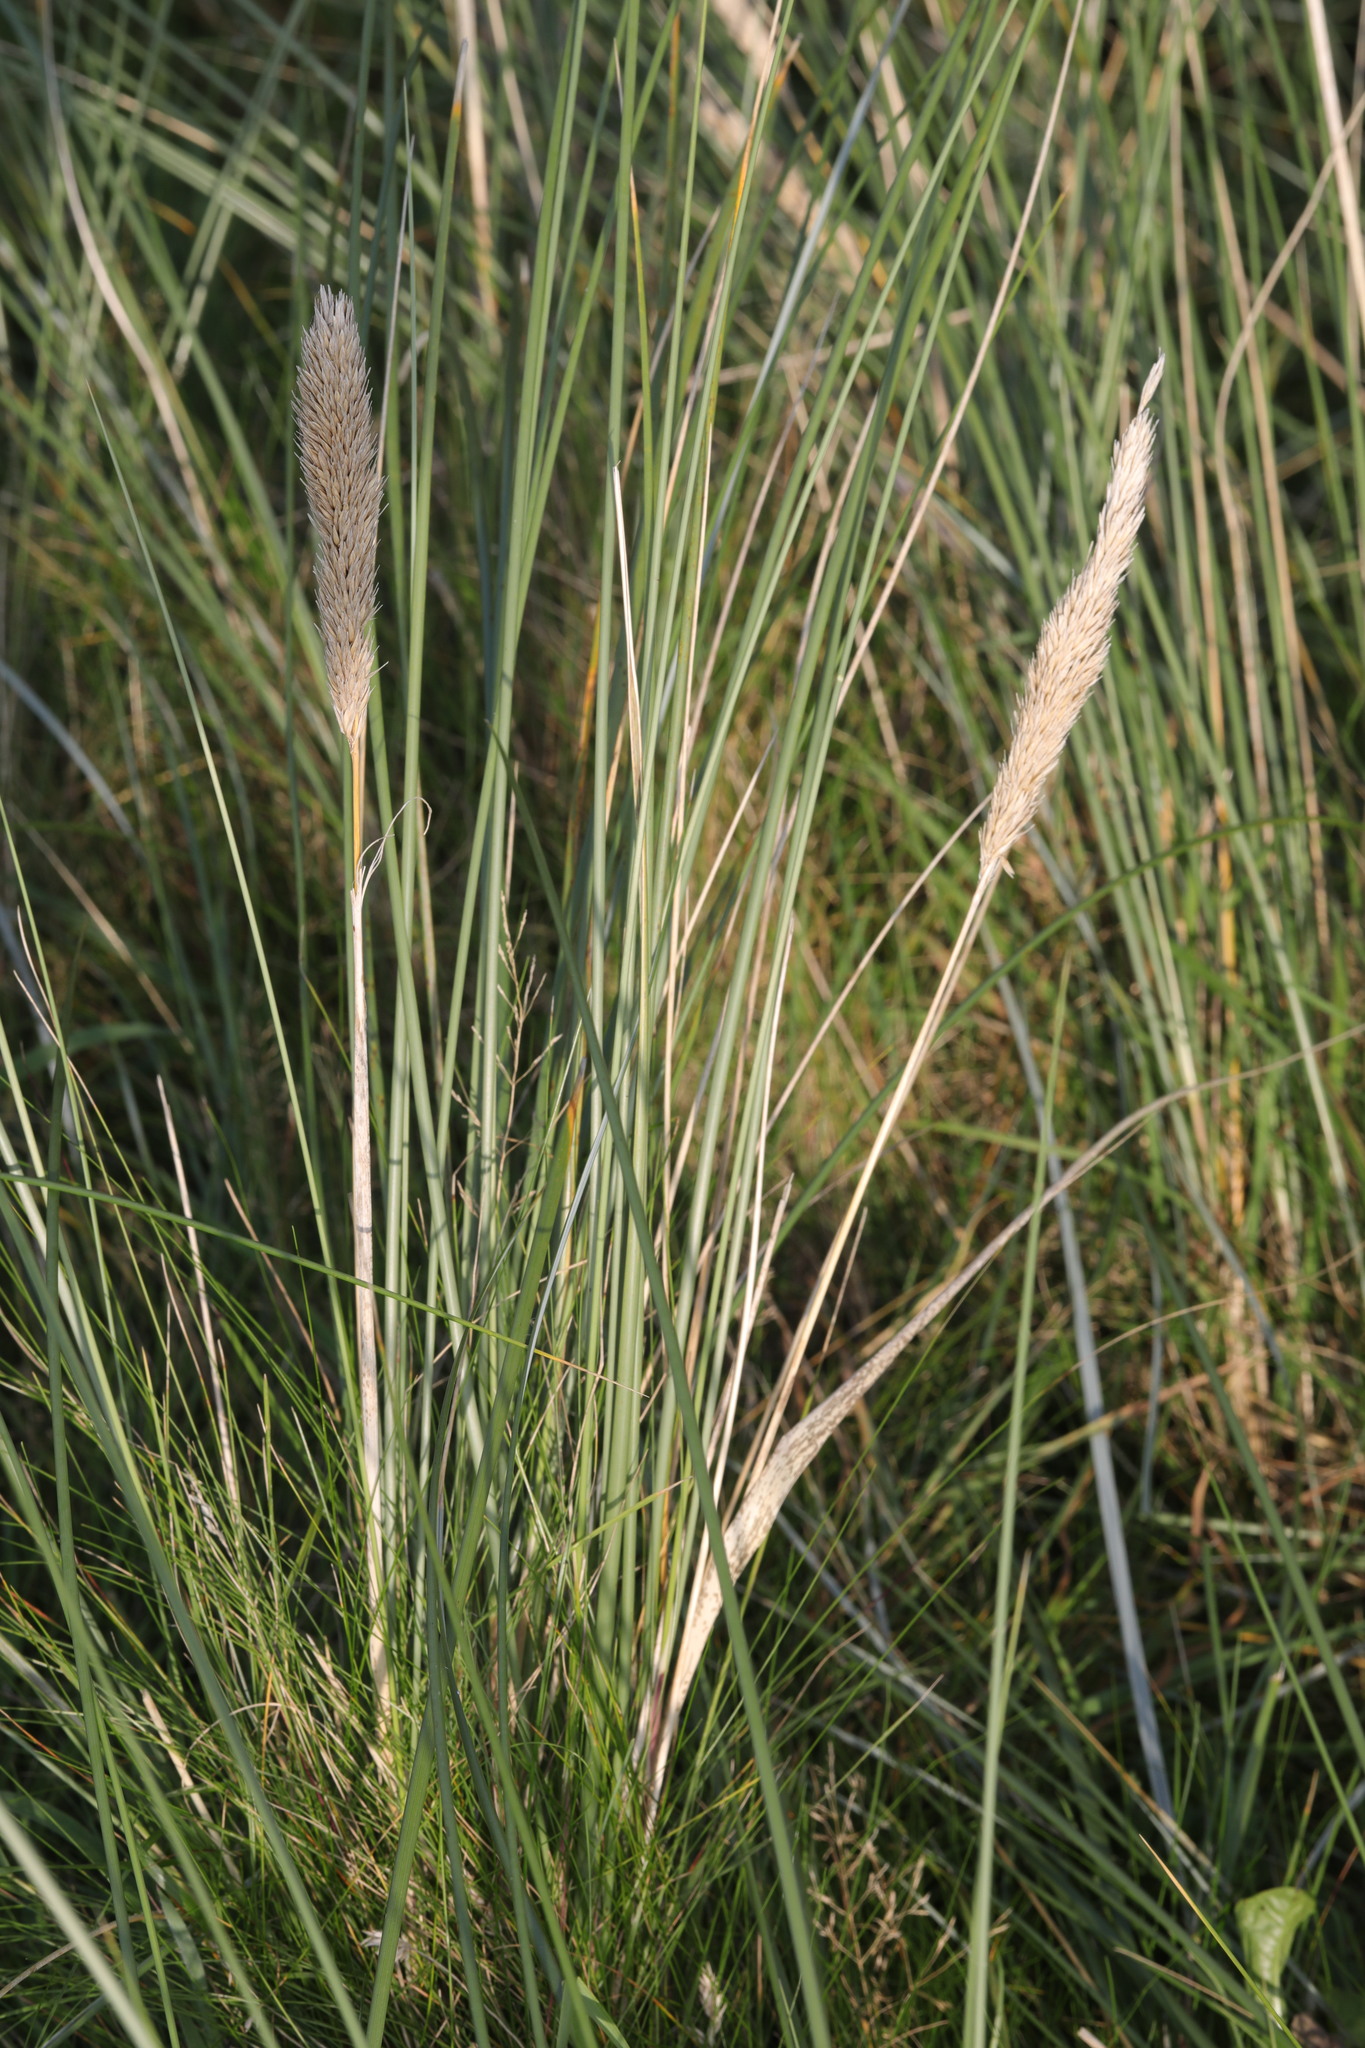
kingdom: Plantae
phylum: Tracheophyta
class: Liliopsida
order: Poales
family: Poaceae
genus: Calamagrostis
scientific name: Calamagrostis arenaria
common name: European beachgrass
